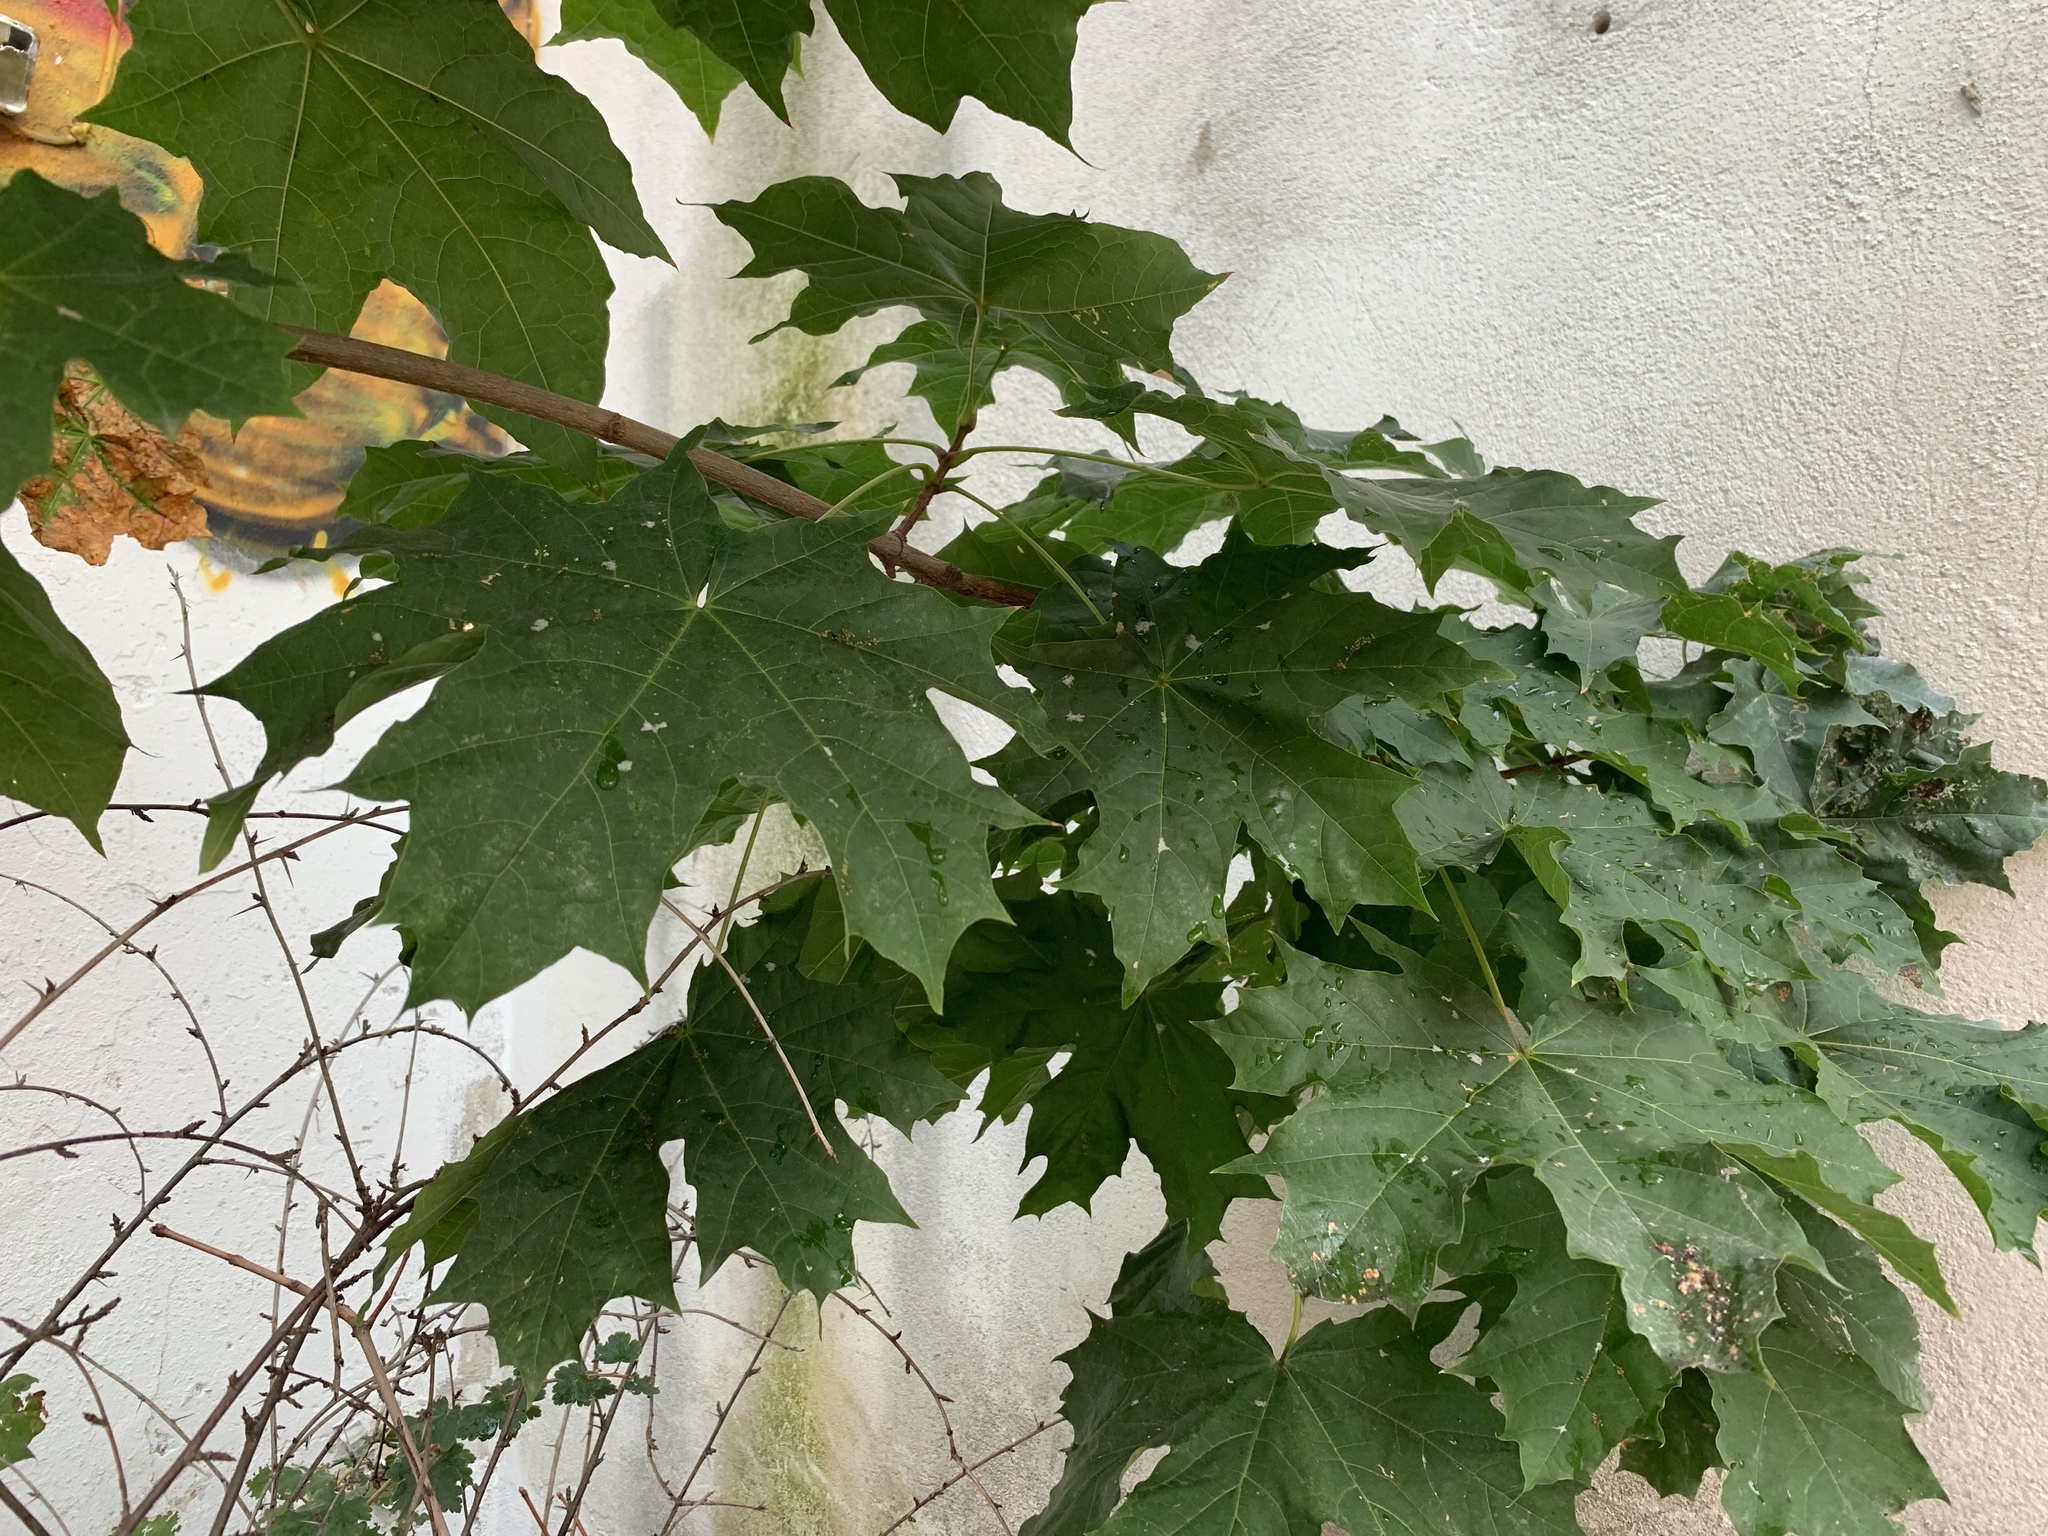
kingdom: Plantae
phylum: Tracheophyta
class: Magnoliopsida
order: Sapindales
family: Sapindaceae
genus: Acer
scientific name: Acer platanoides
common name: Norway maple
